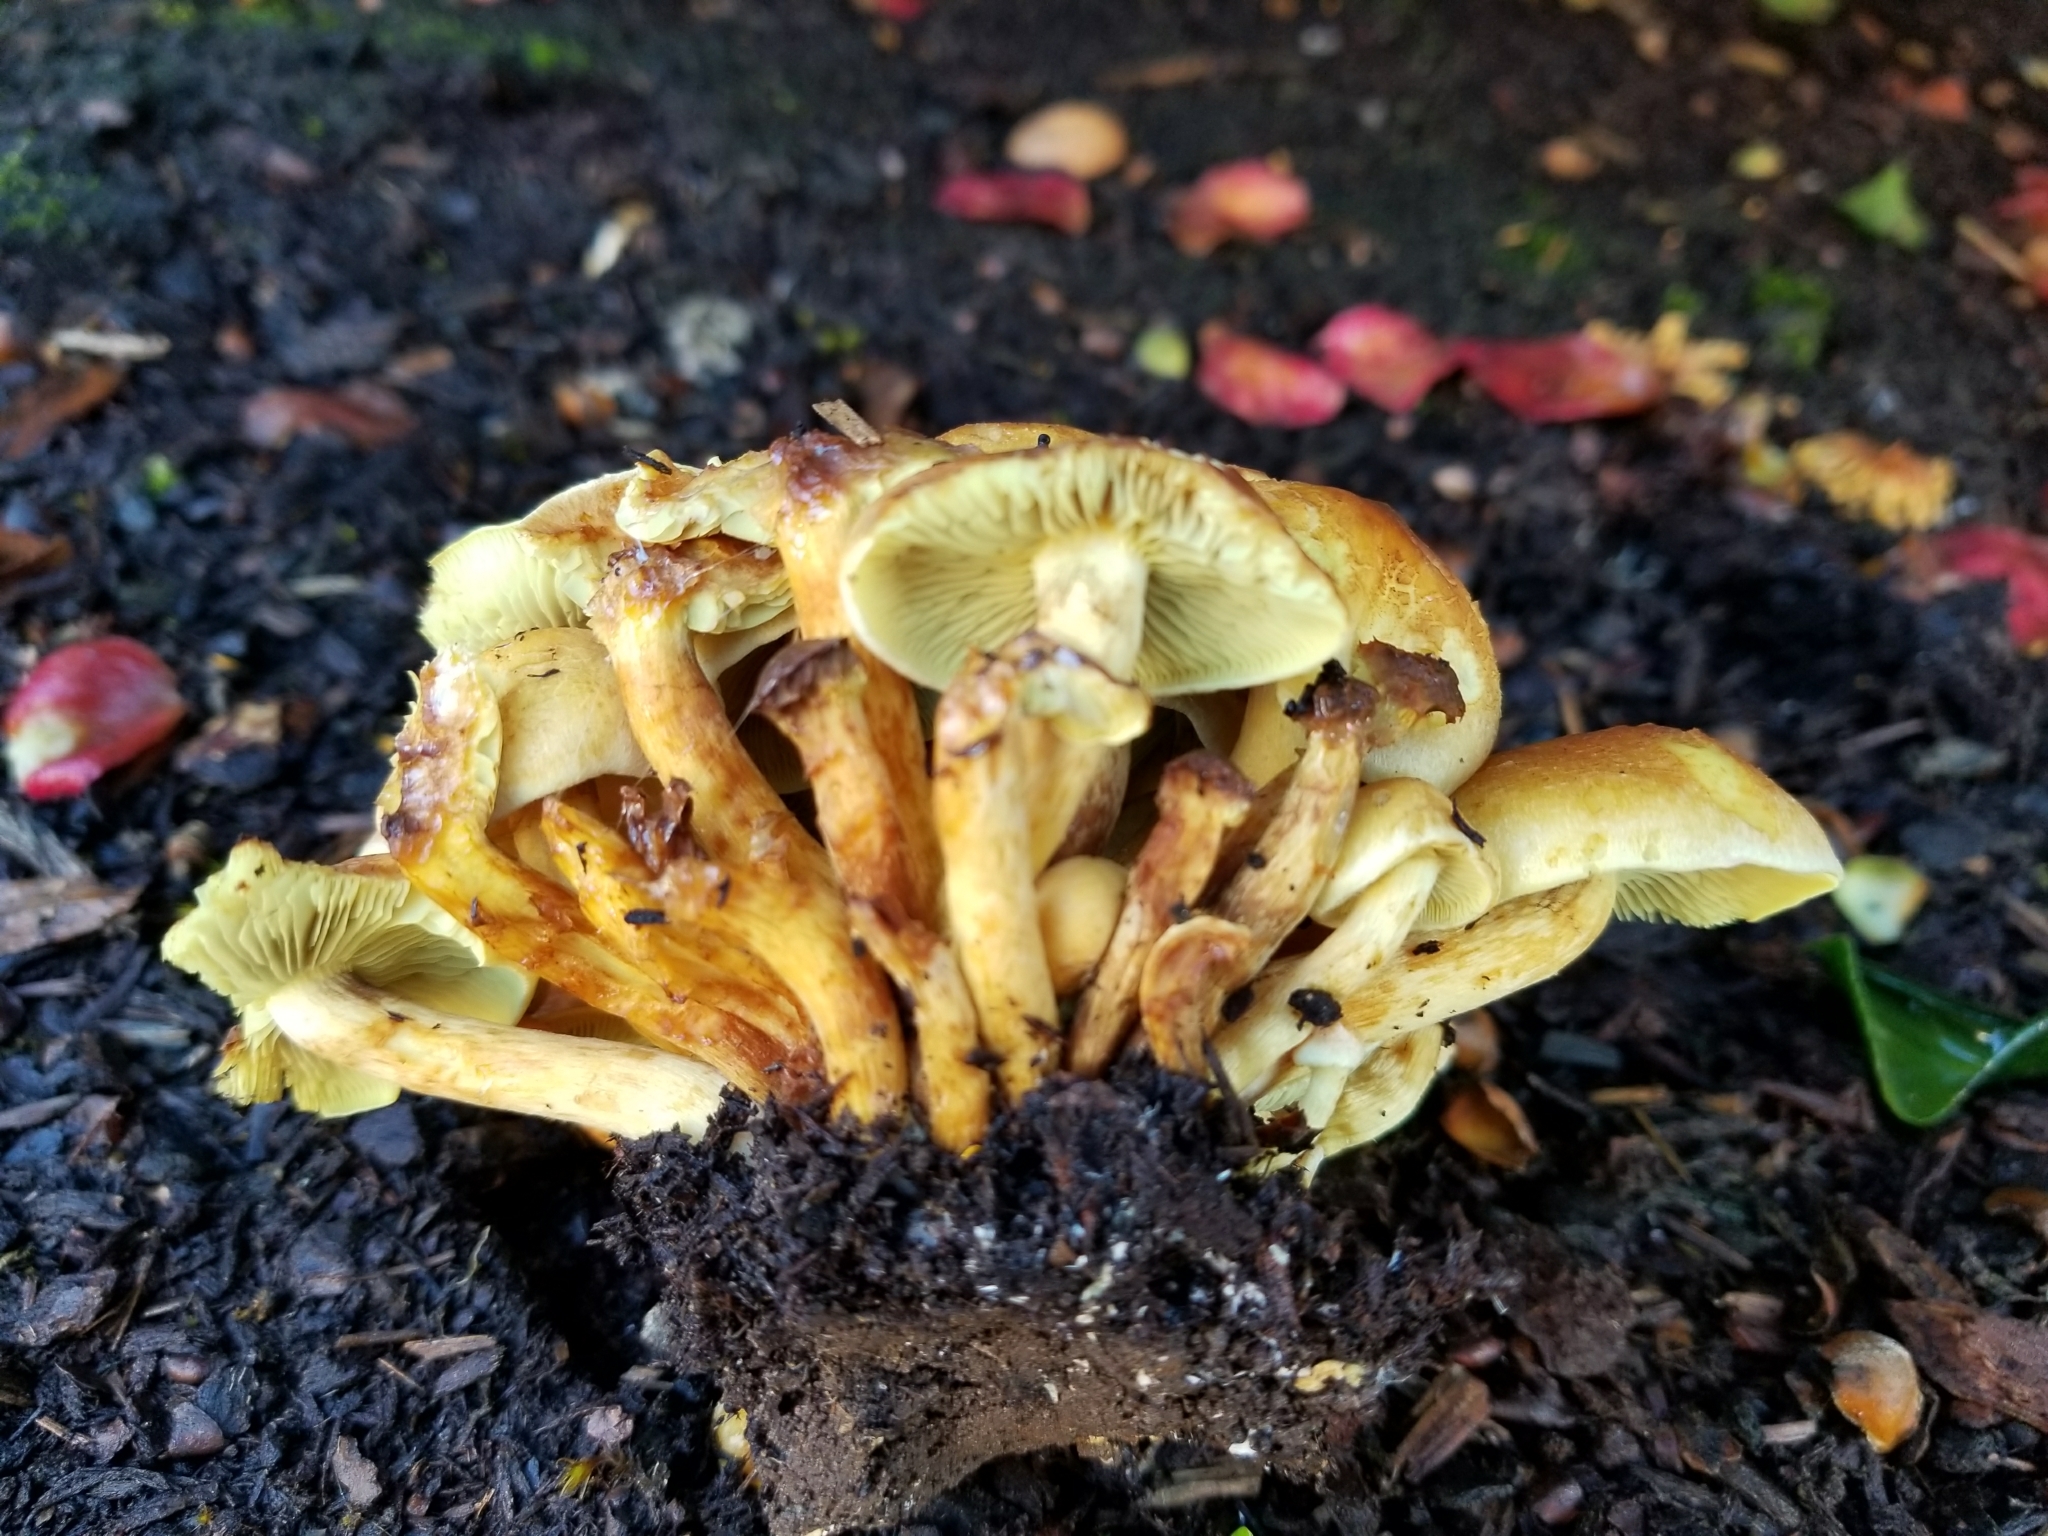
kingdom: Fungi
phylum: Basidiomycota
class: Agaricomycetes
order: Agaricales
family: Strophariaceae
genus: Hypholoma
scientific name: Hypholoma fasciculare
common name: Sulphur tuft
